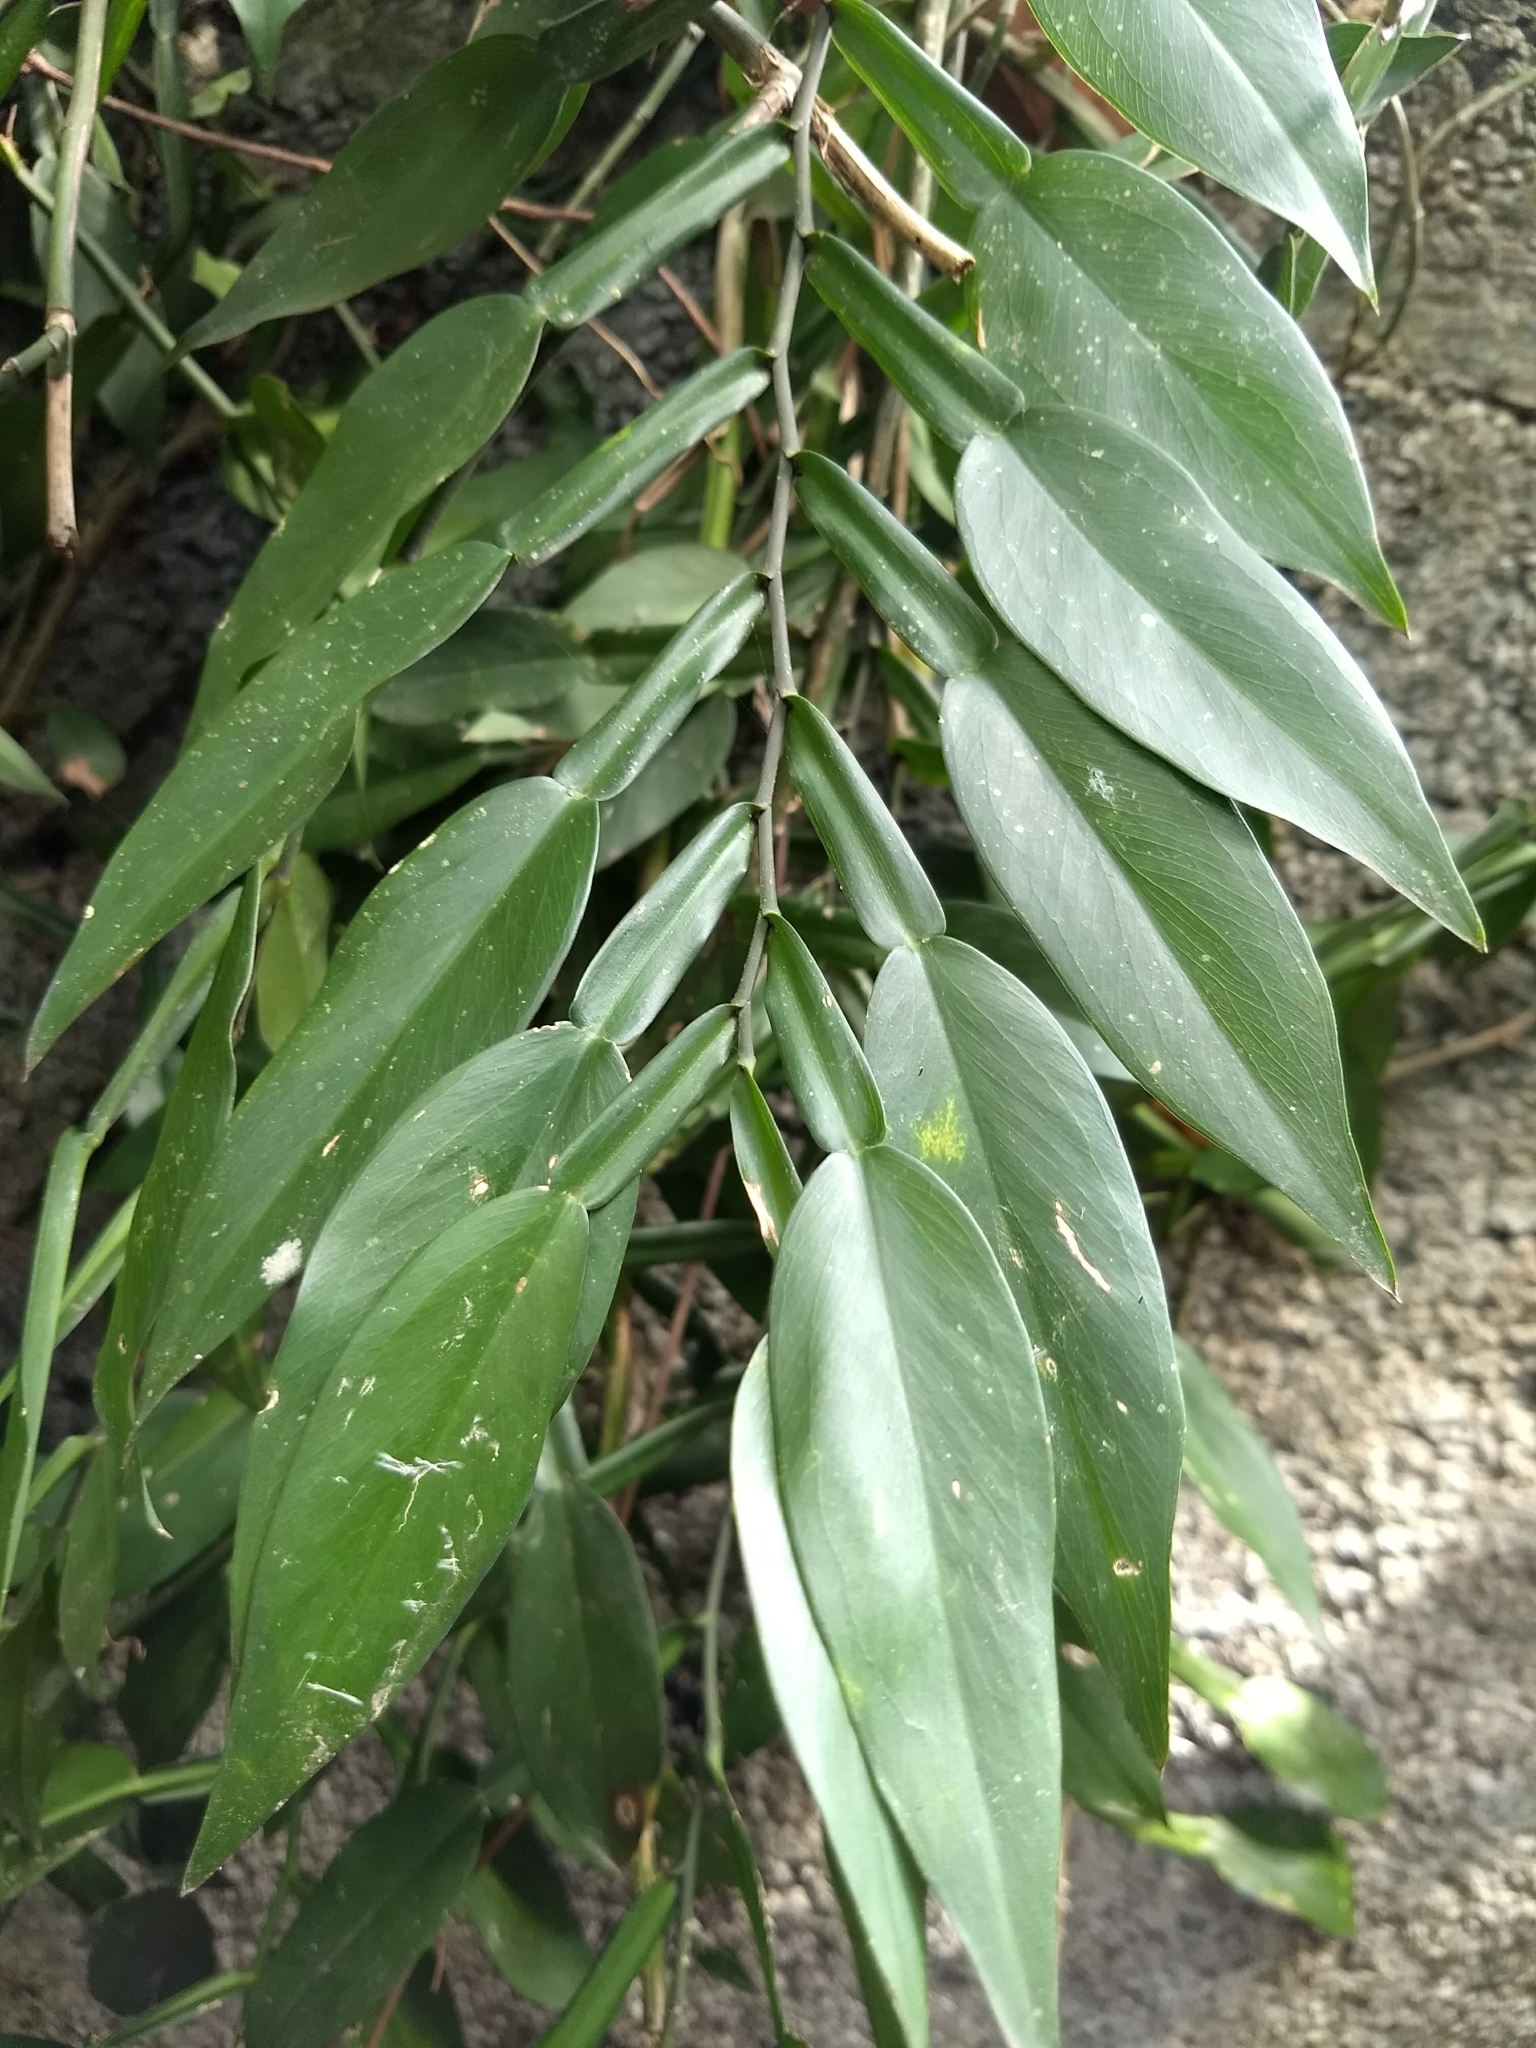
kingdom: Plantae
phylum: Tracheophyta
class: Liliopsida
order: Alismatales
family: Araceae
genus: Pothos
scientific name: Pothos chinensis
